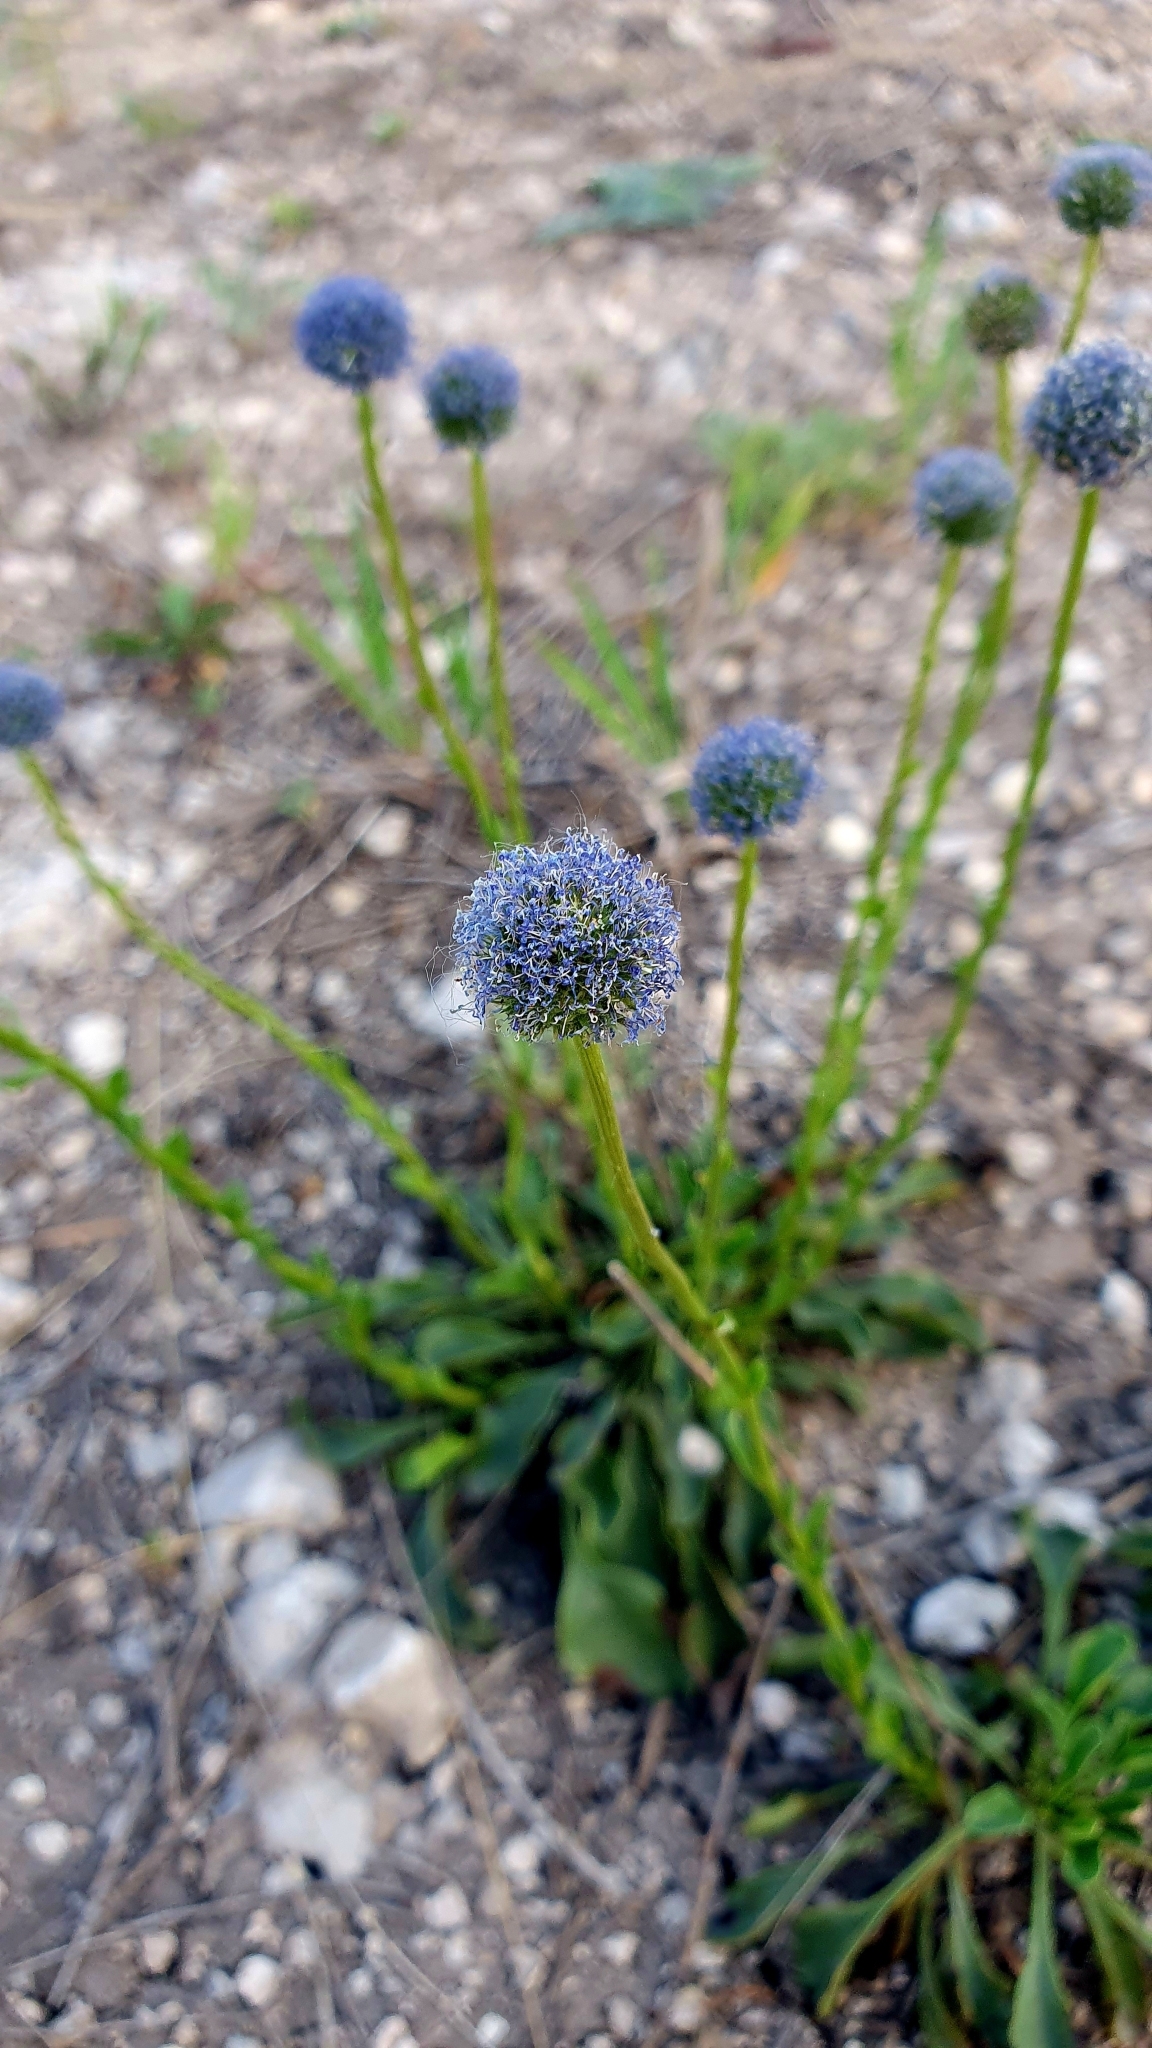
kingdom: Plantae
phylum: Tracheophyta
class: Magnoliopsida
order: Lamiales
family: Plantaginaceae
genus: Globularia
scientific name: Globularia bisnagarica
